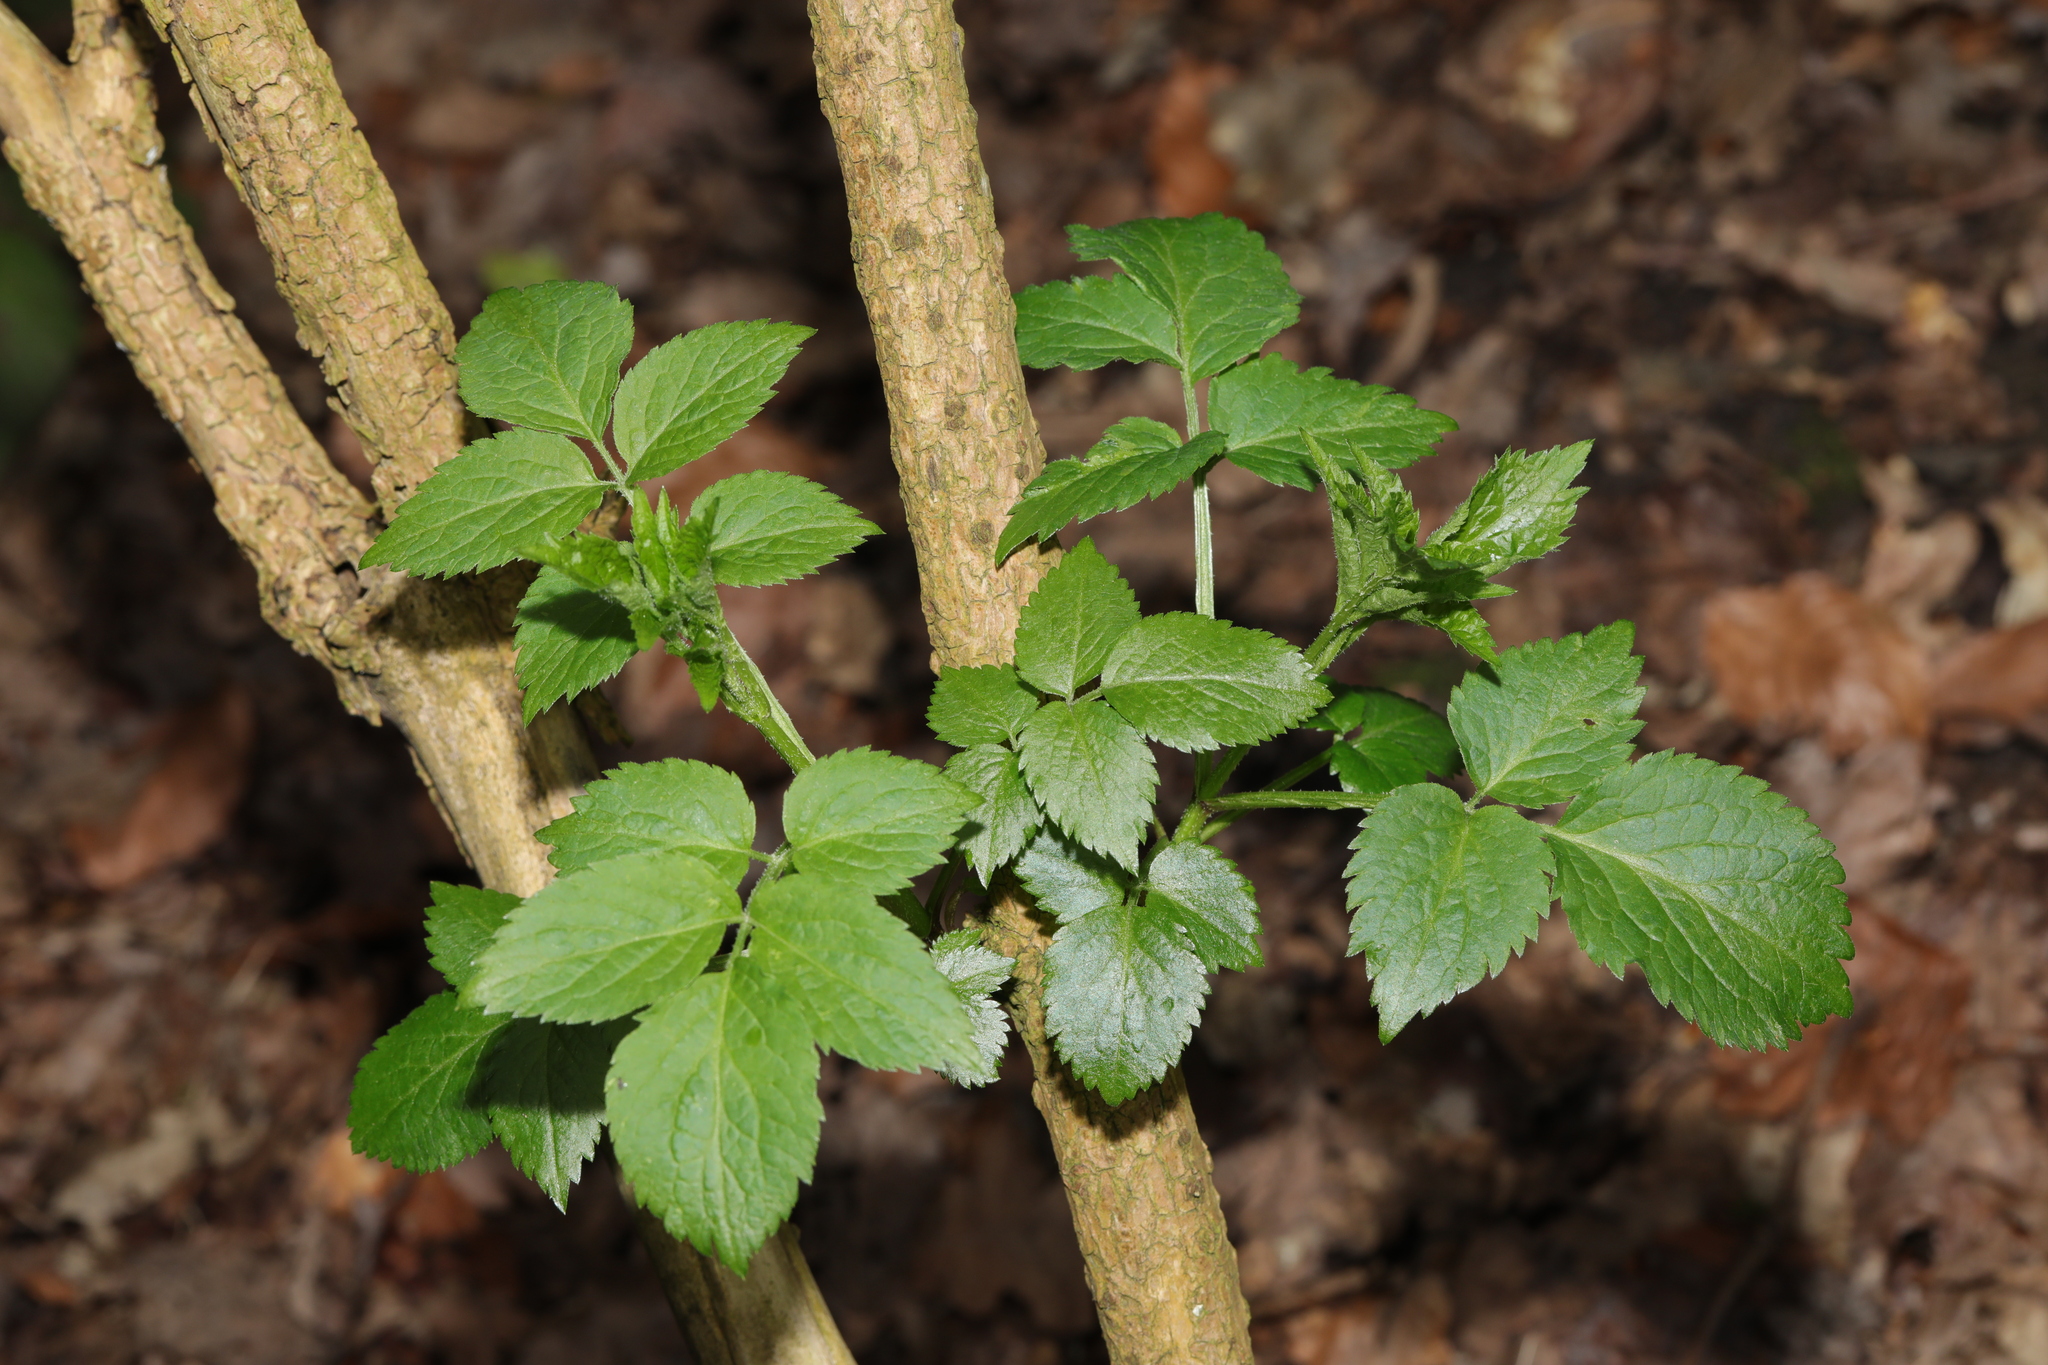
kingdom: Plantae
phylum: Tracheophyta
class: Magnoliopsida
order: Dipsacales
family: Viburnaceae
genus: Sambucus
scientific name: Sambucus nigra
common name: Elder
